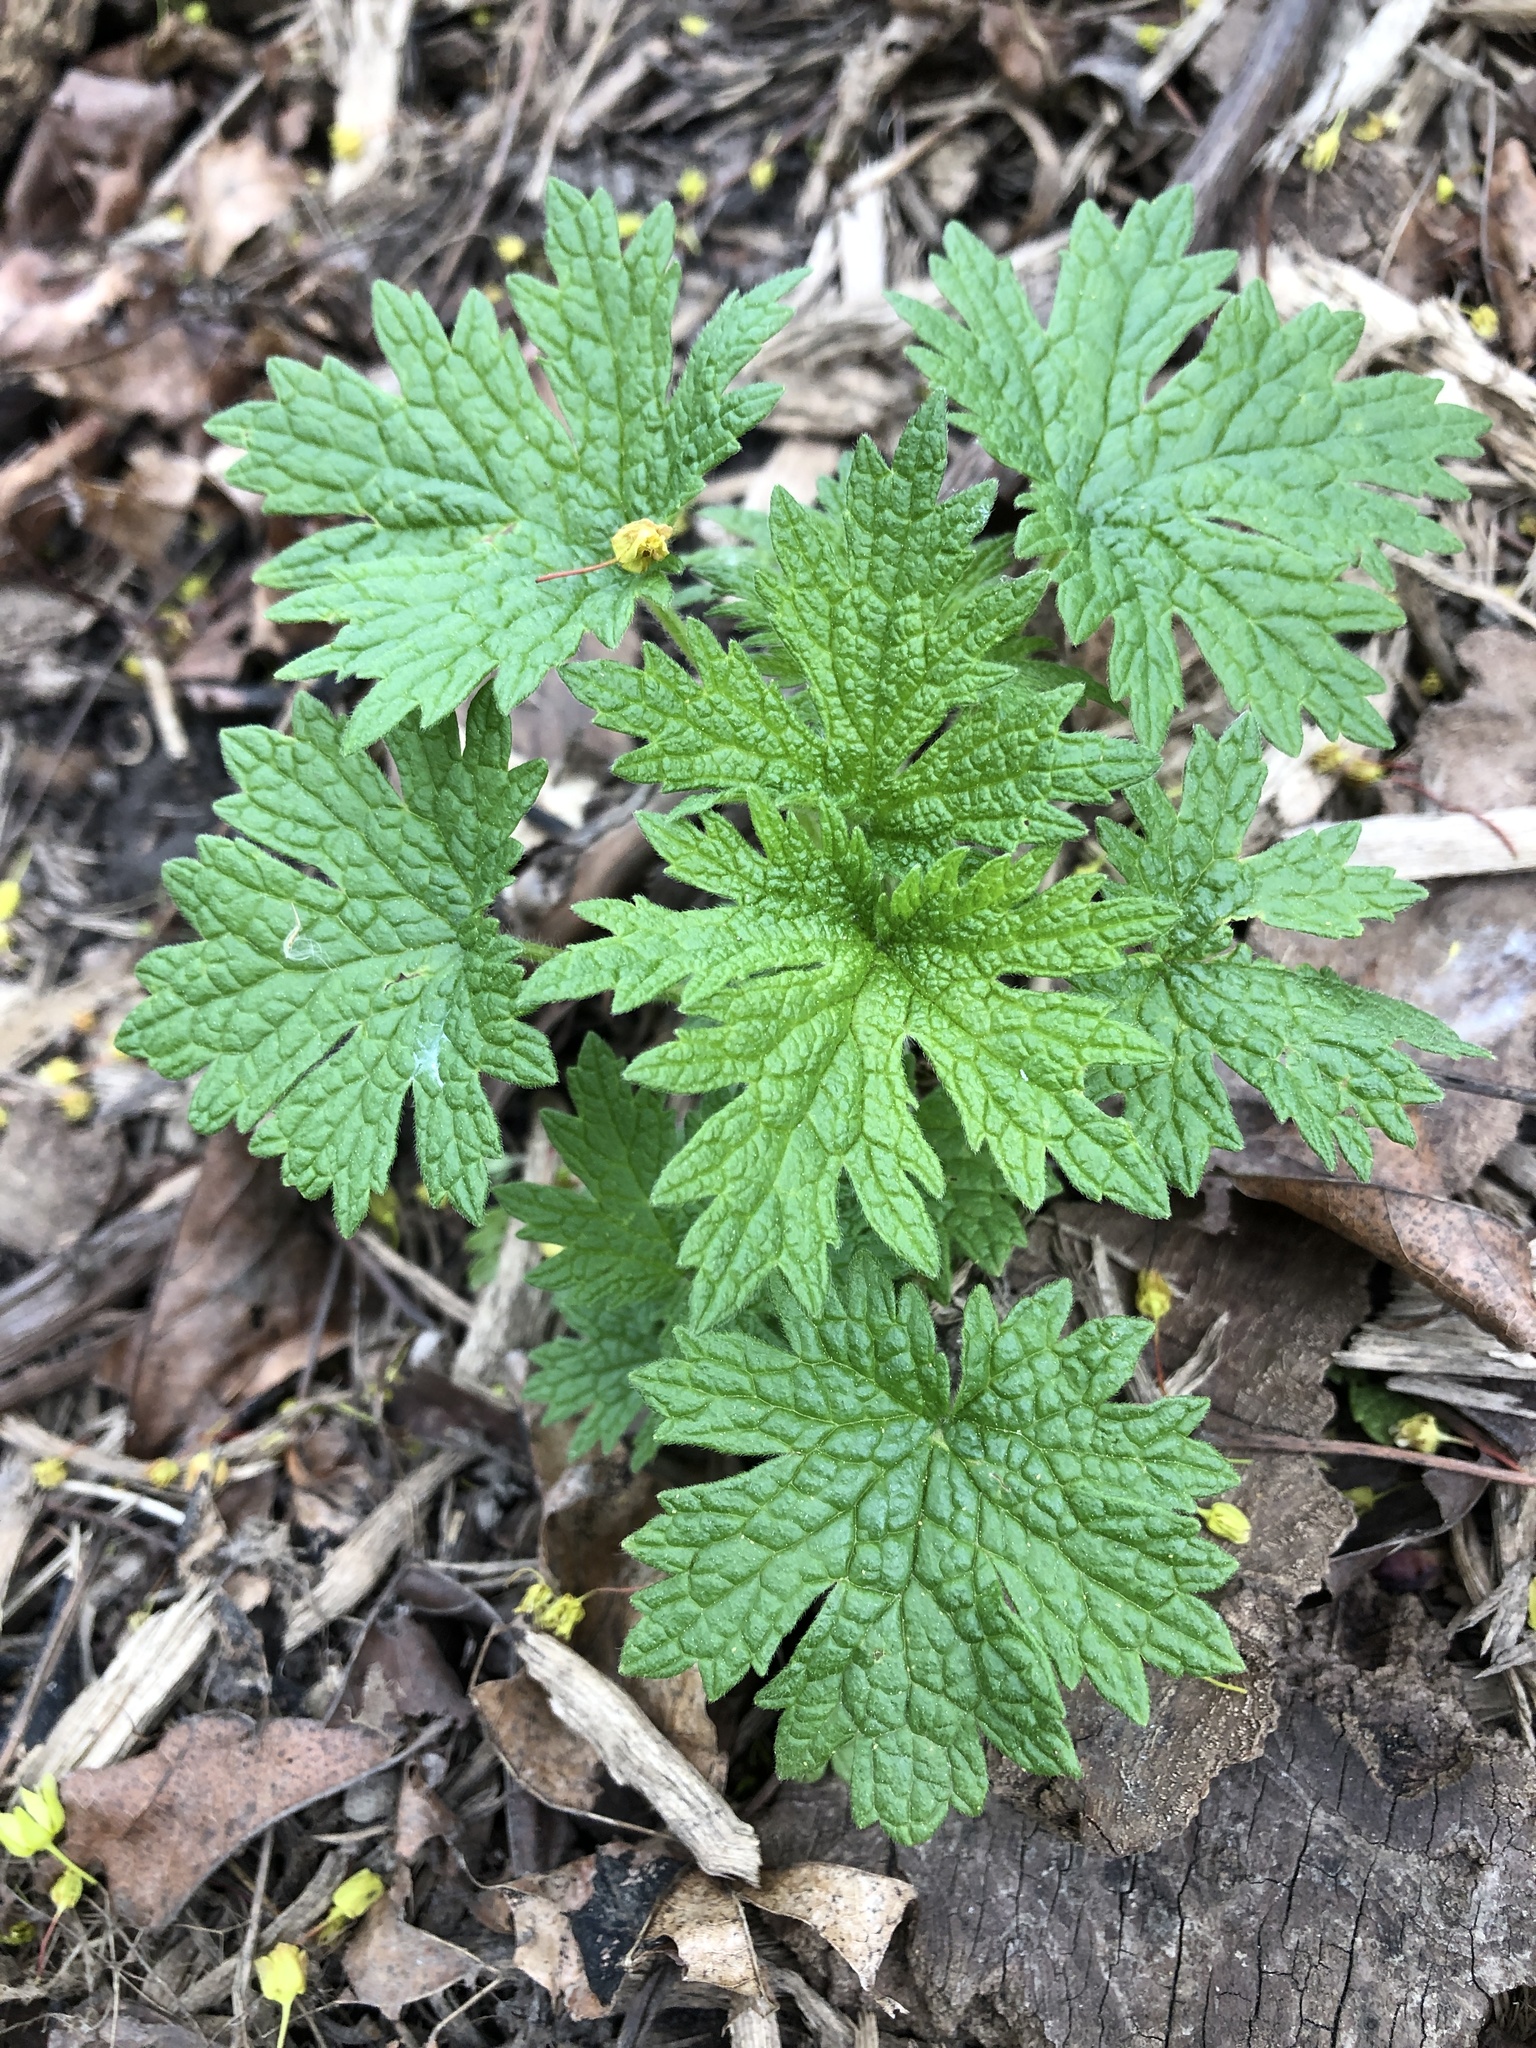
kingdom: Plantae
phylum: Tracheophyta
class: Magnoliopsida
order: Lamiales
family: Lamiaceae
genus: Leonurus
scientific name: Leonurus cardiaca
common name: Motherwort
